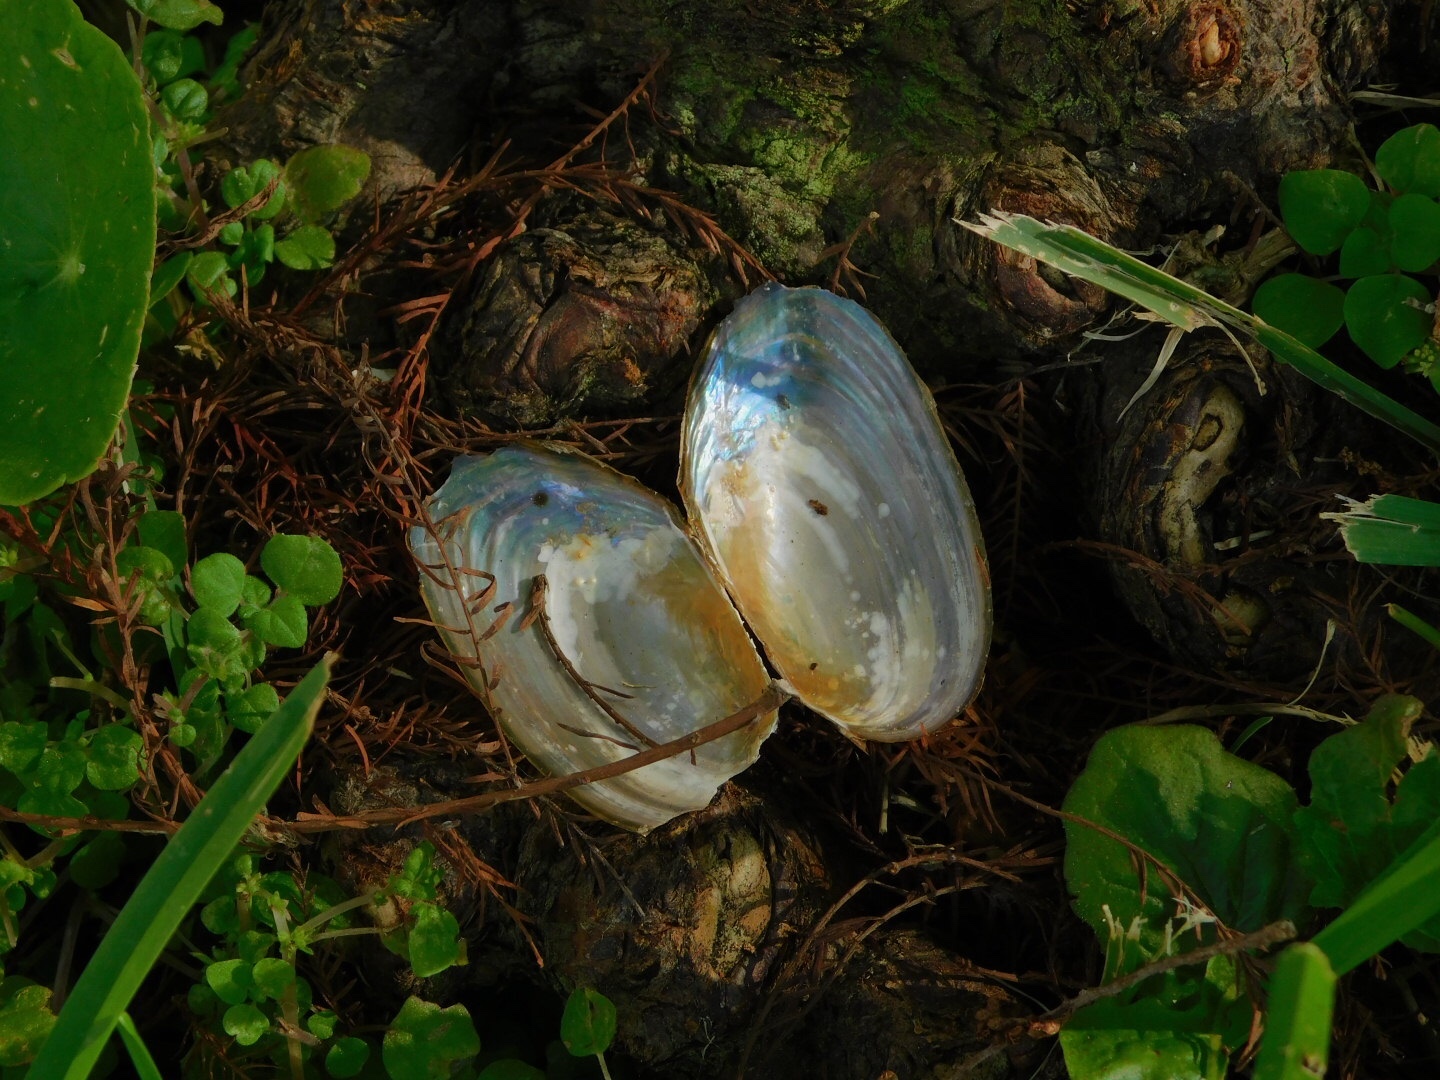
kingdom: Animalia
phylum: Mollusca
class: Bivalvia
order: Unionida
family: Unionidae
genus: Utterbackia
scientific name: Utterbackia imbecillis
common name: Paper pondshell
